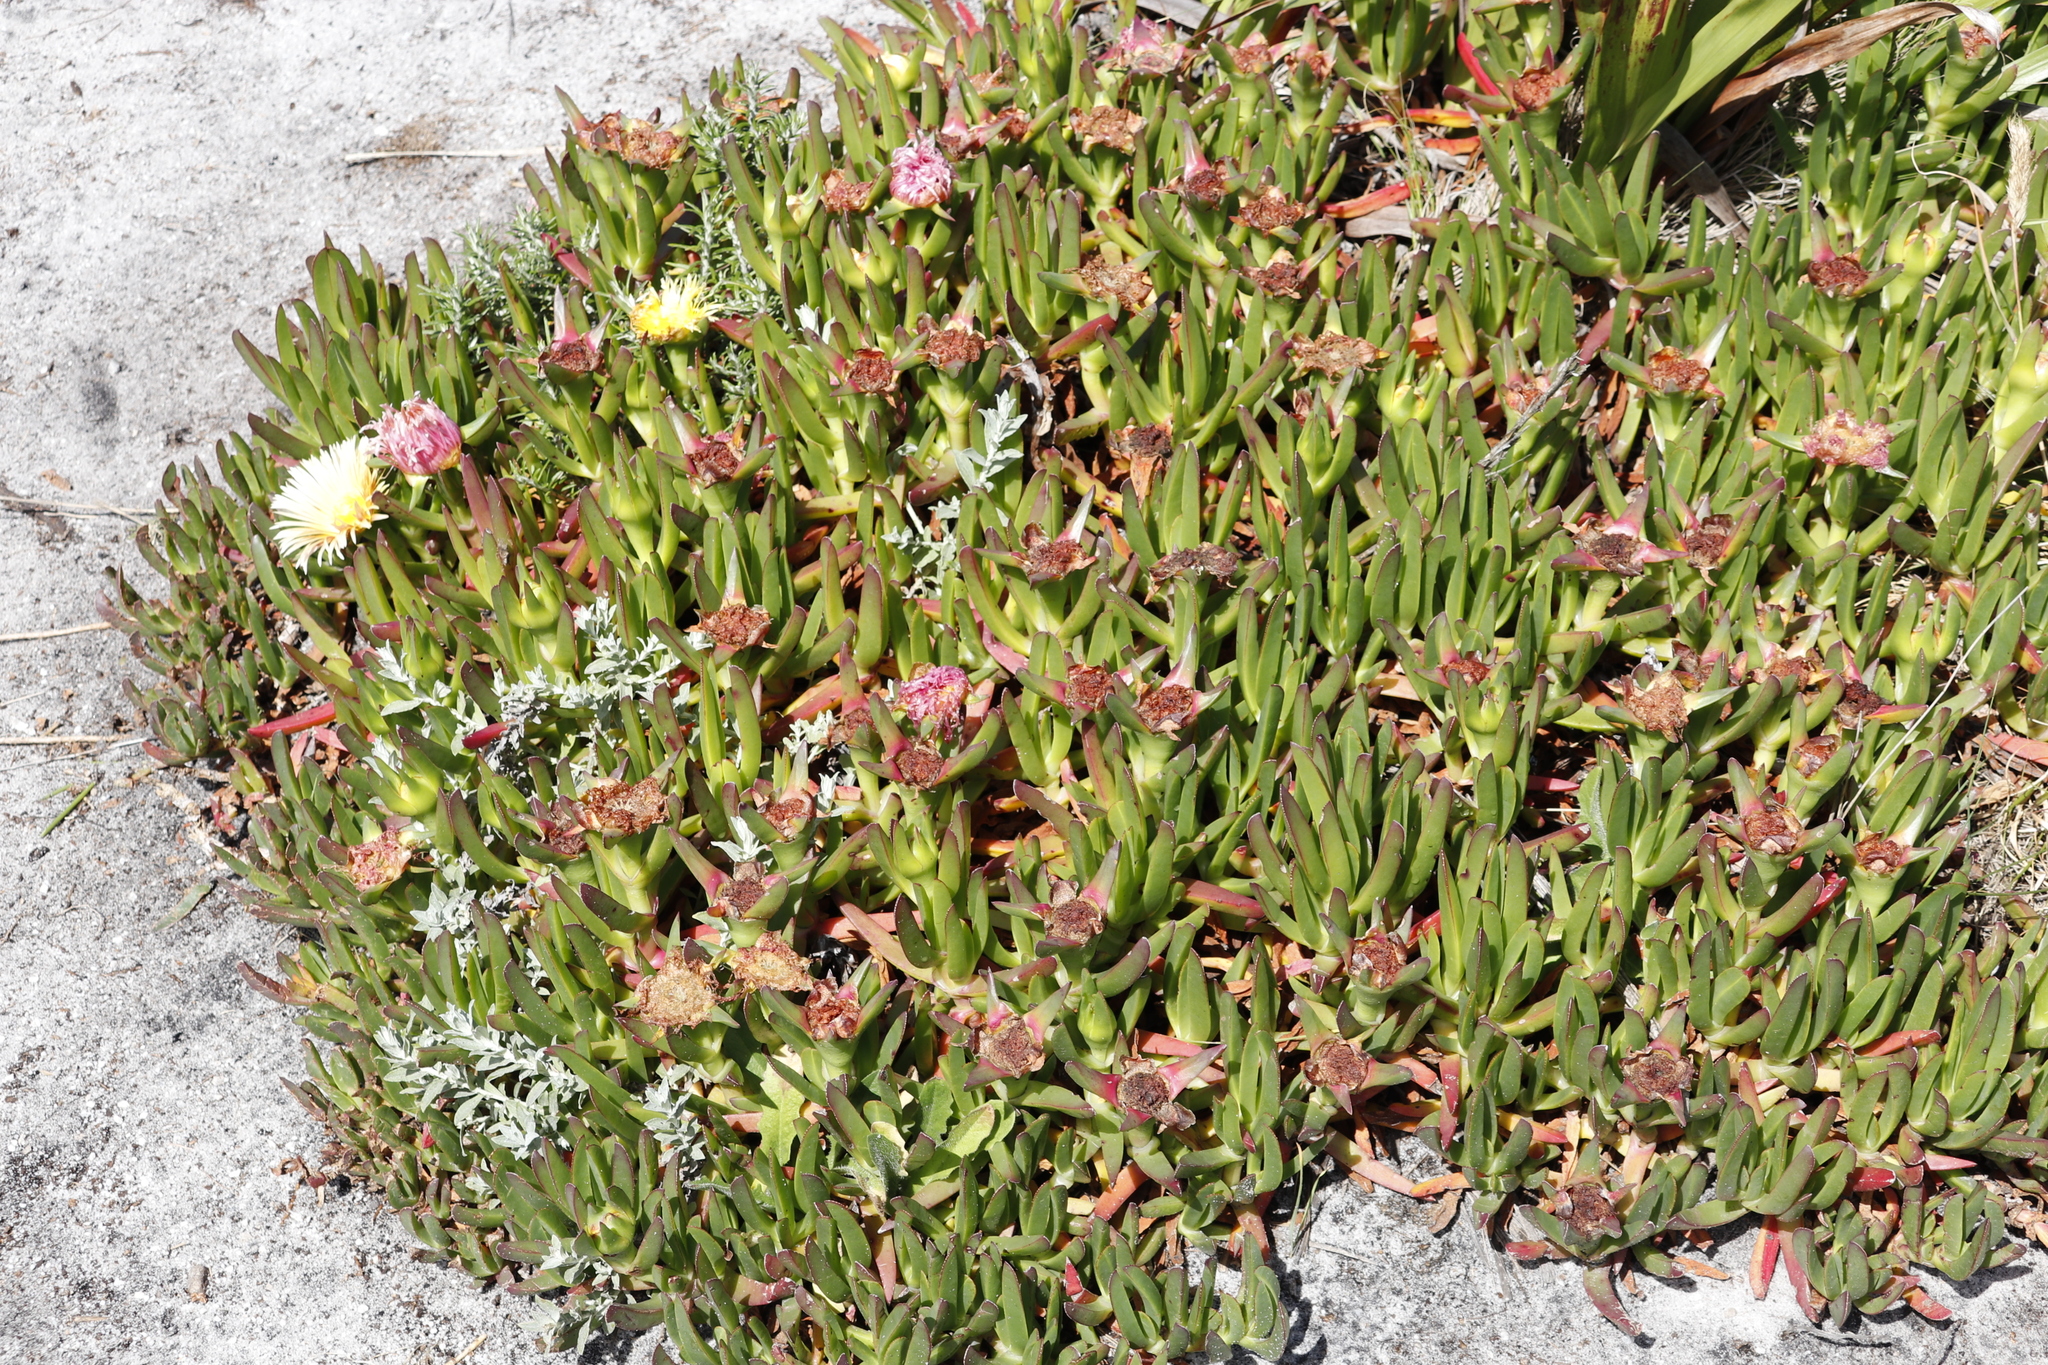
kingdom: Plantae
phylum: Tracheophyta
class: Magnoliopsida
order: Caryophyllales
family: Aizoaceae
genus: Carpobrotus
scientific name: Carpobrotus edulis
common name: Hottentot-fig
